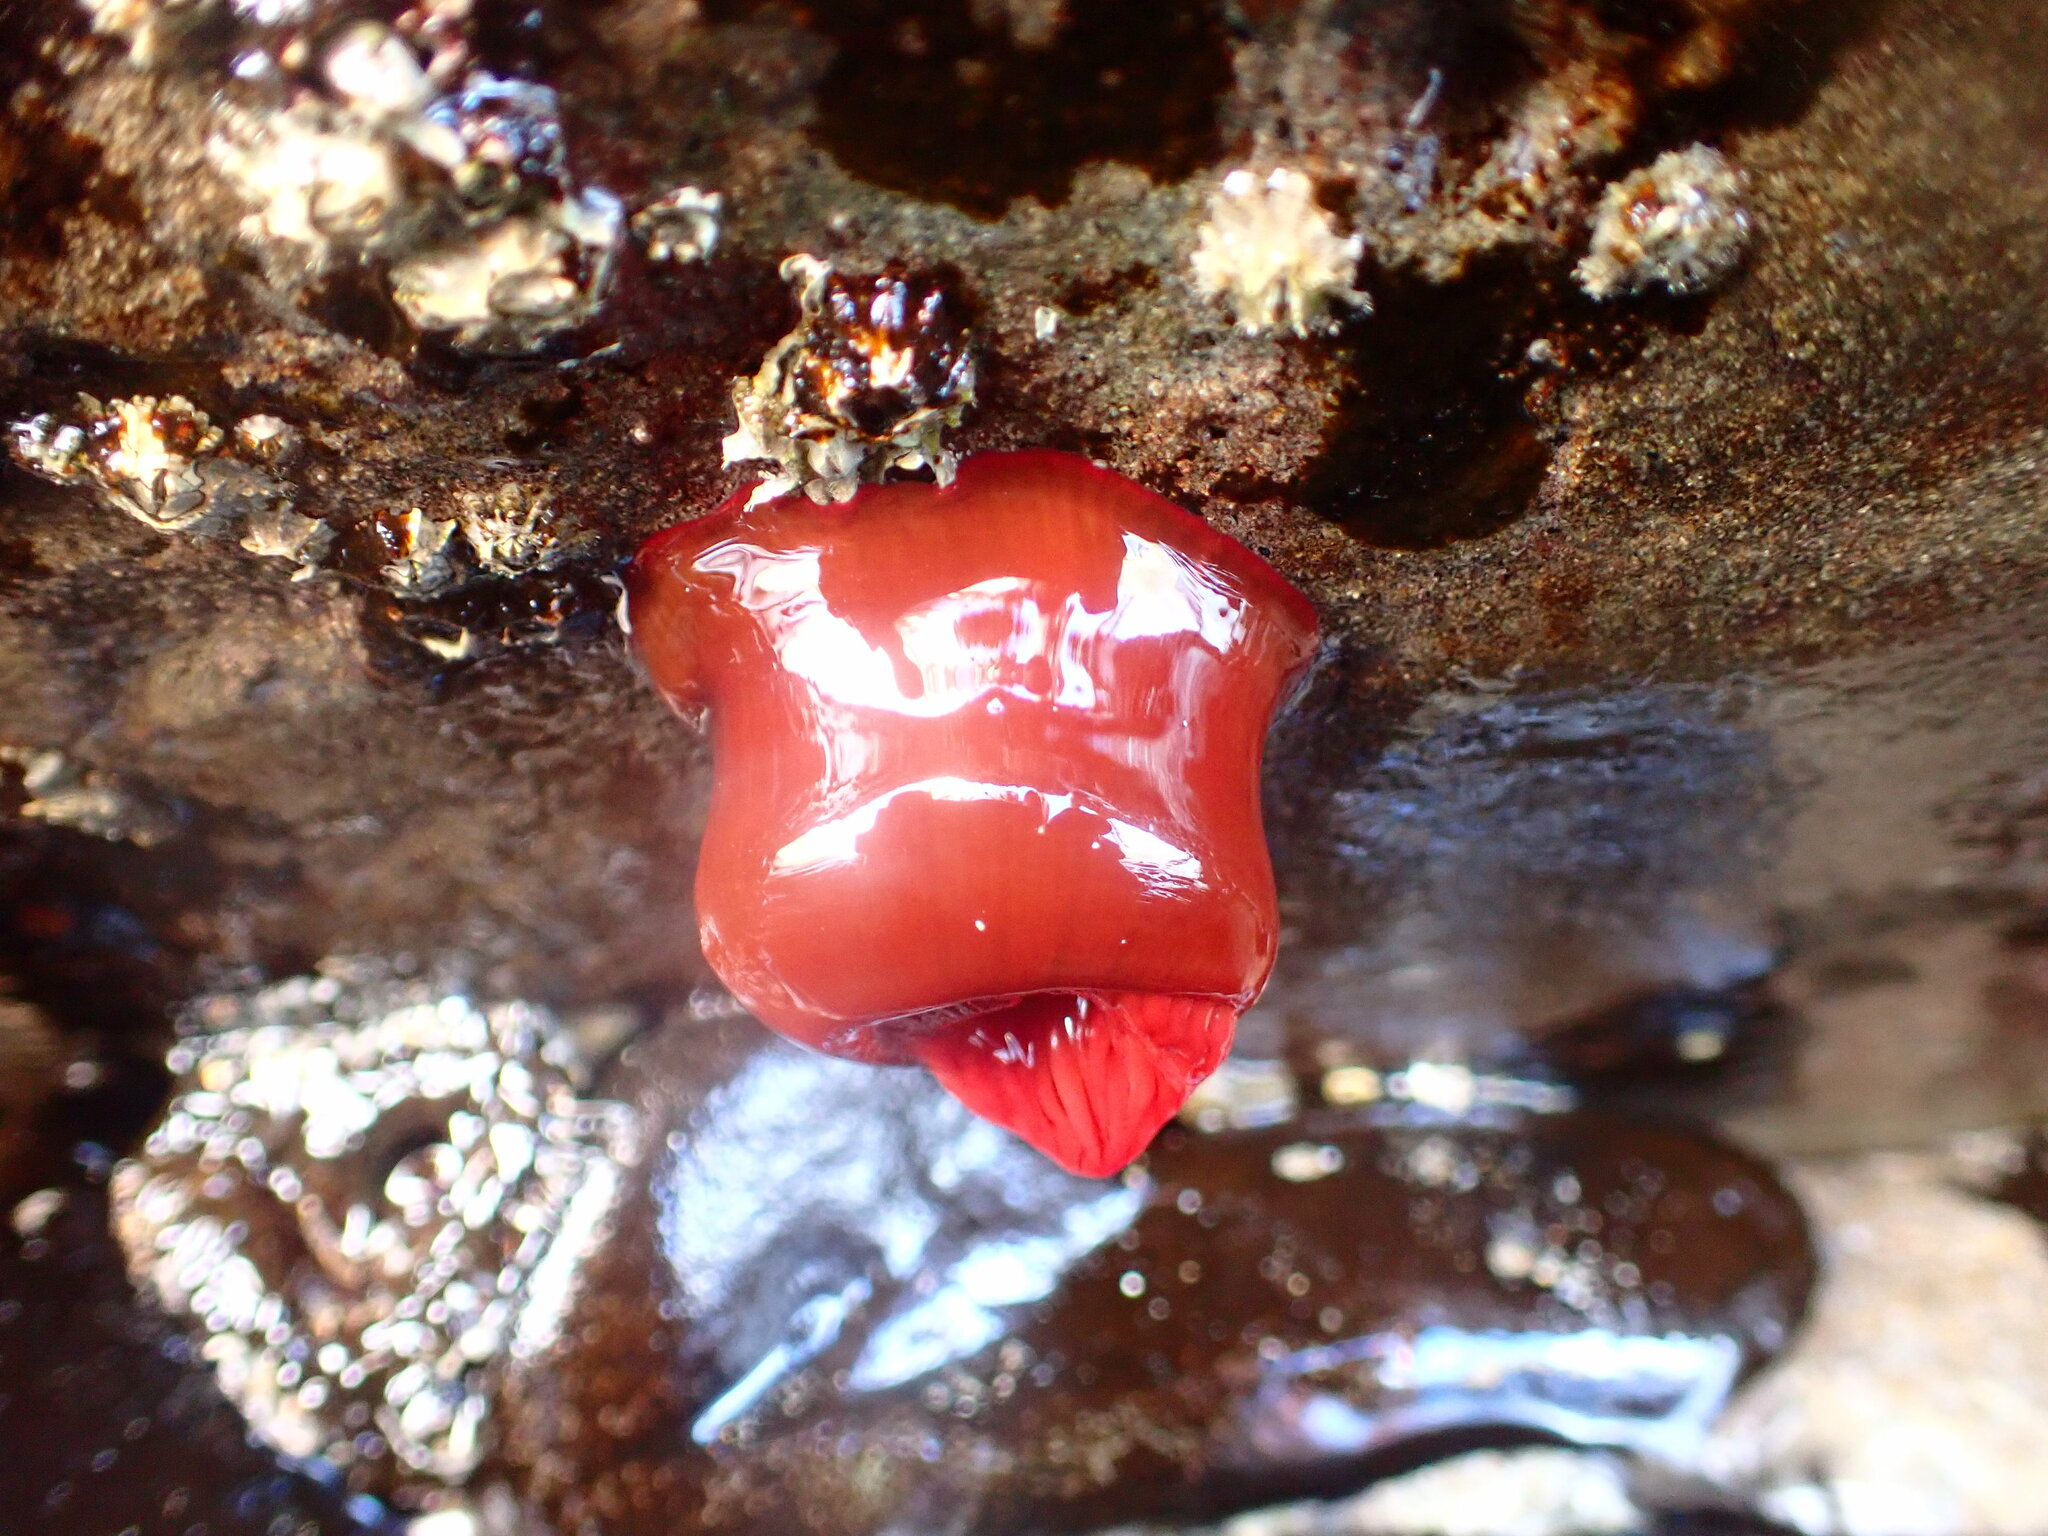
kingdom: Animalia
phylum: Cnidaria
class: Anthozoa
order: Actiniaria
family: Actiniidae
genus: Actinia
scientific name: Actinia tenebrosa
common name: Waratah anemone
